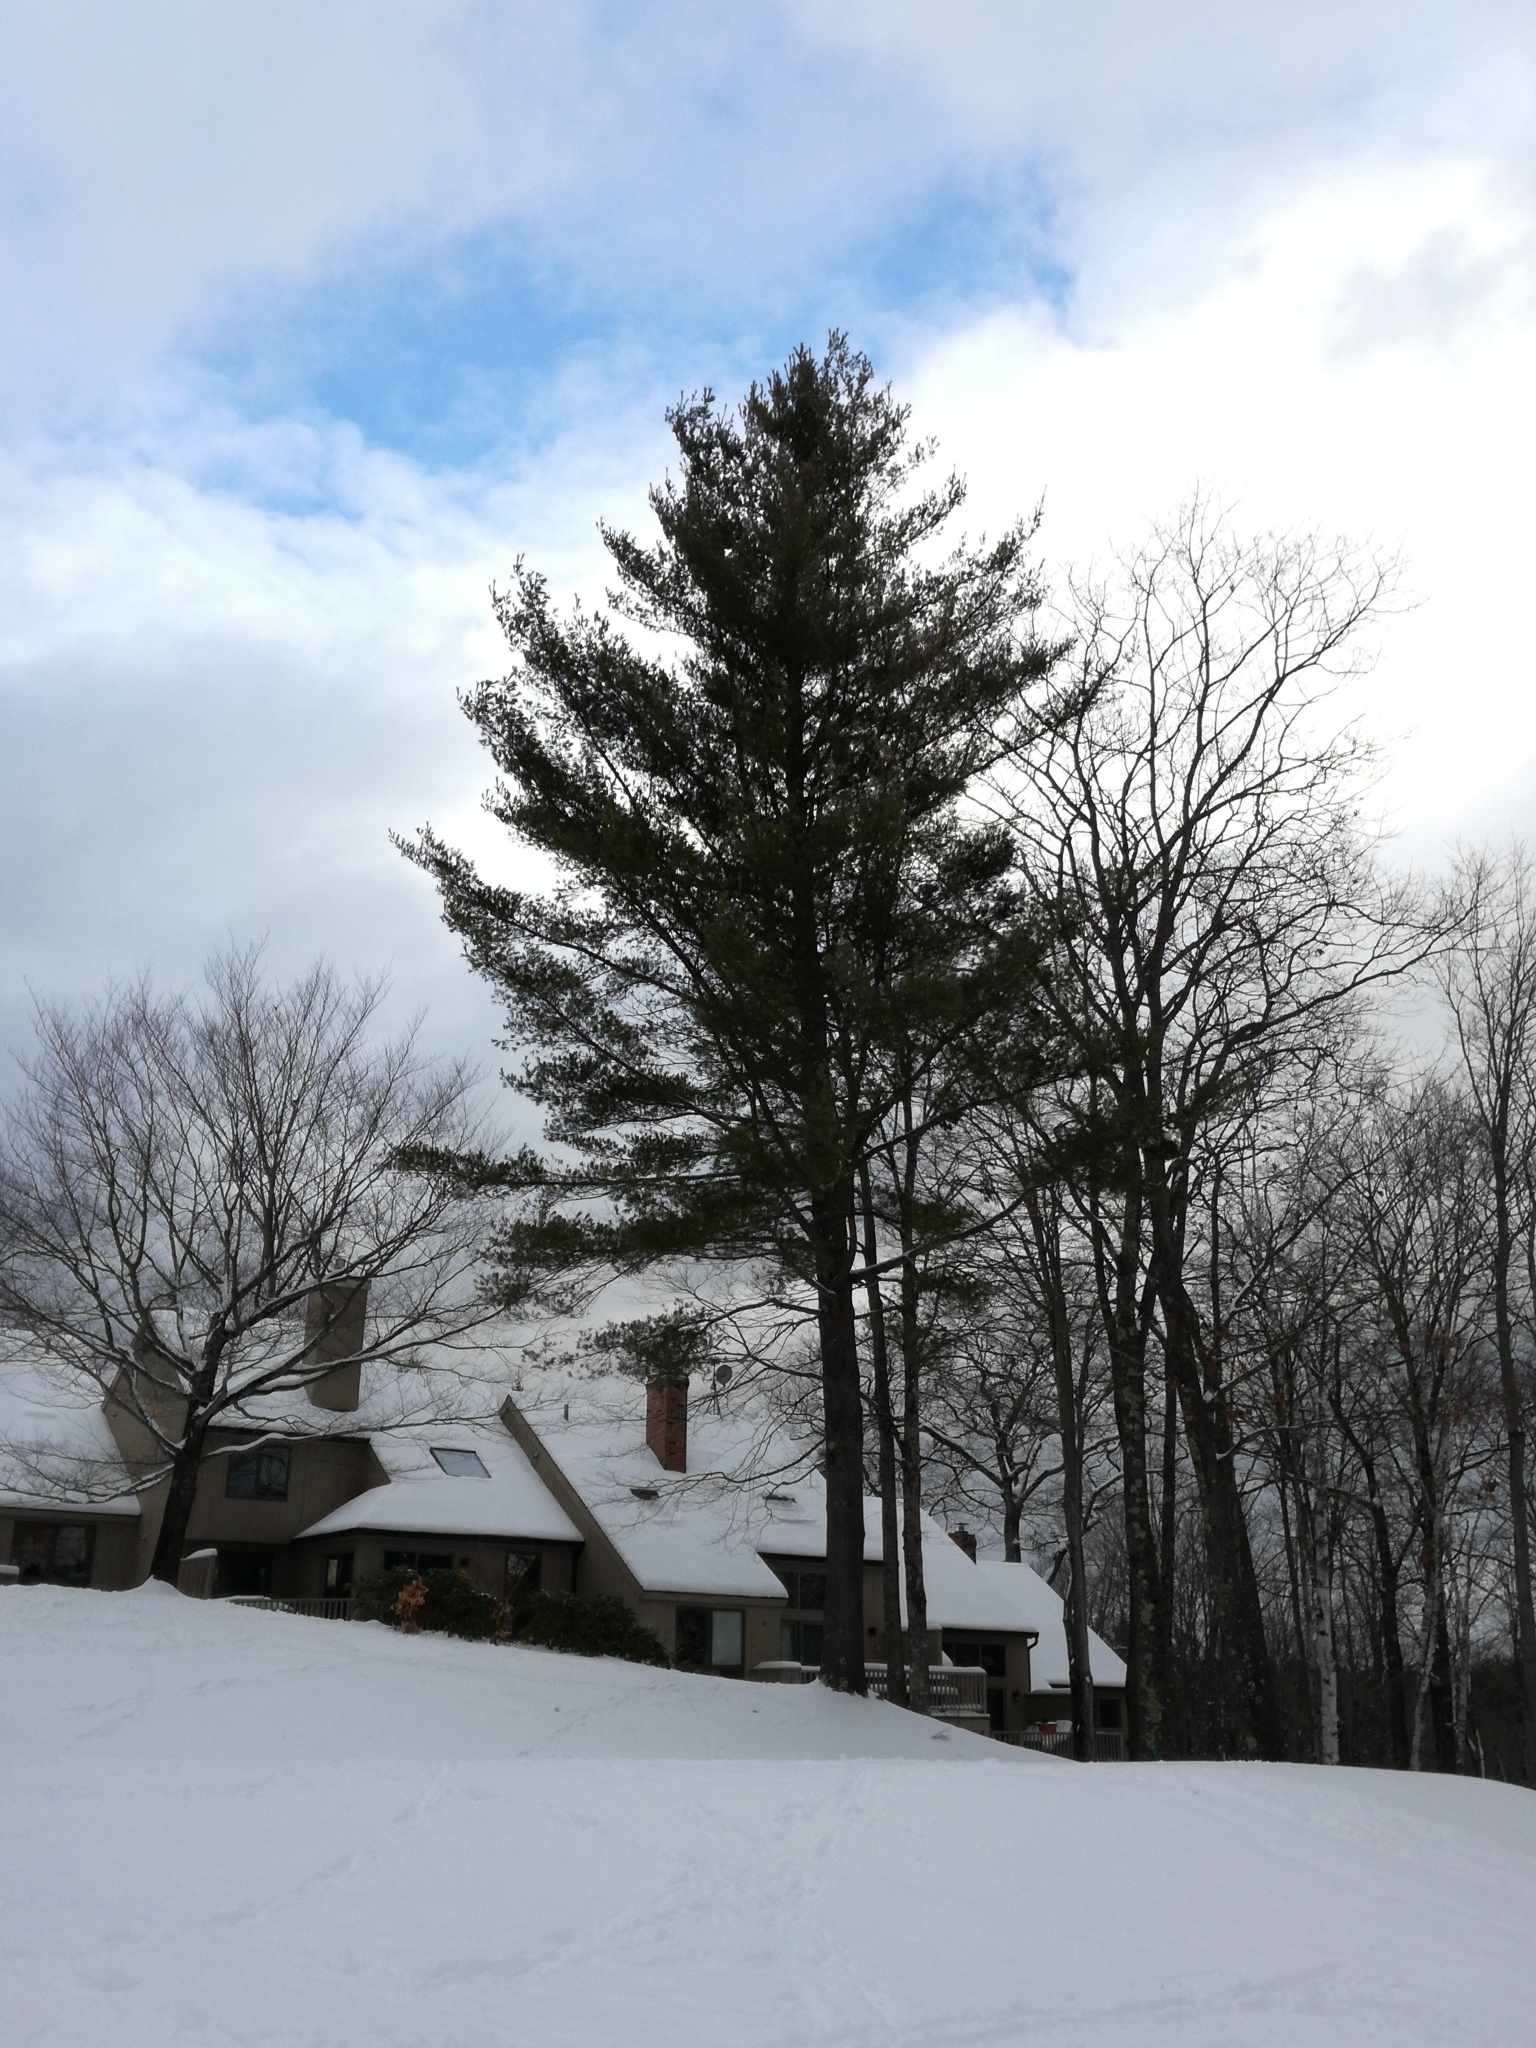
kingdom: Plantae
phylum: Tracheophyta
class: Pinopsida
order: Pinales
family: Pinaceae
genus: Pinus
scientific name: Pinus strobus
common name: Weymouth pine
